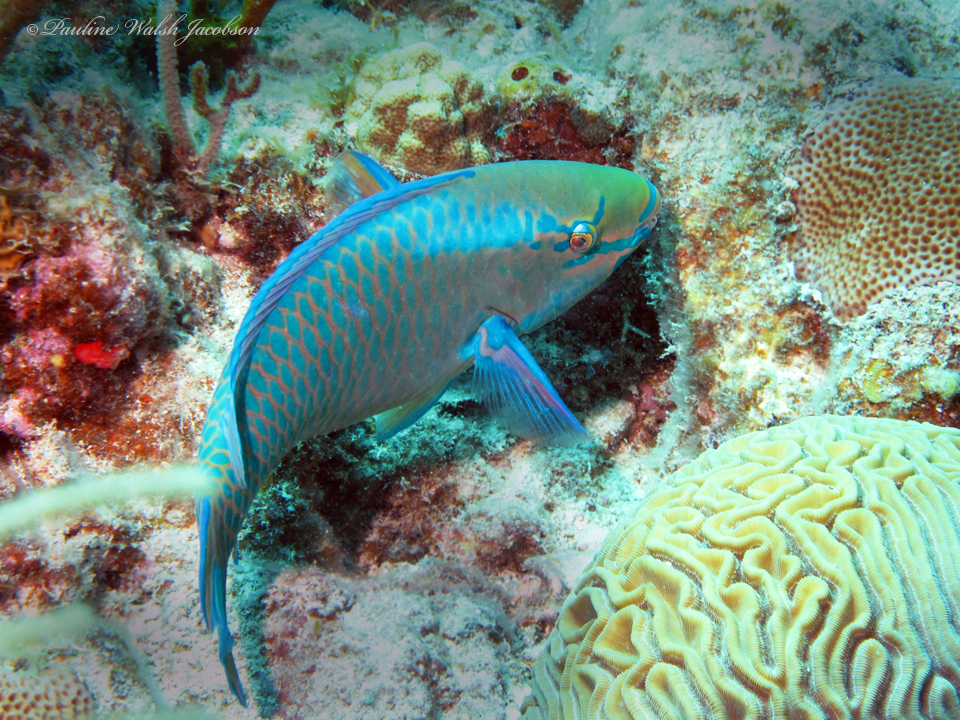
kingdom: Animalia
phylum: Chordata
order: Perciformes
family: Scaridae
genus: Scarus
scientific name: Scarus vetula
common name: Queen parrotfish
